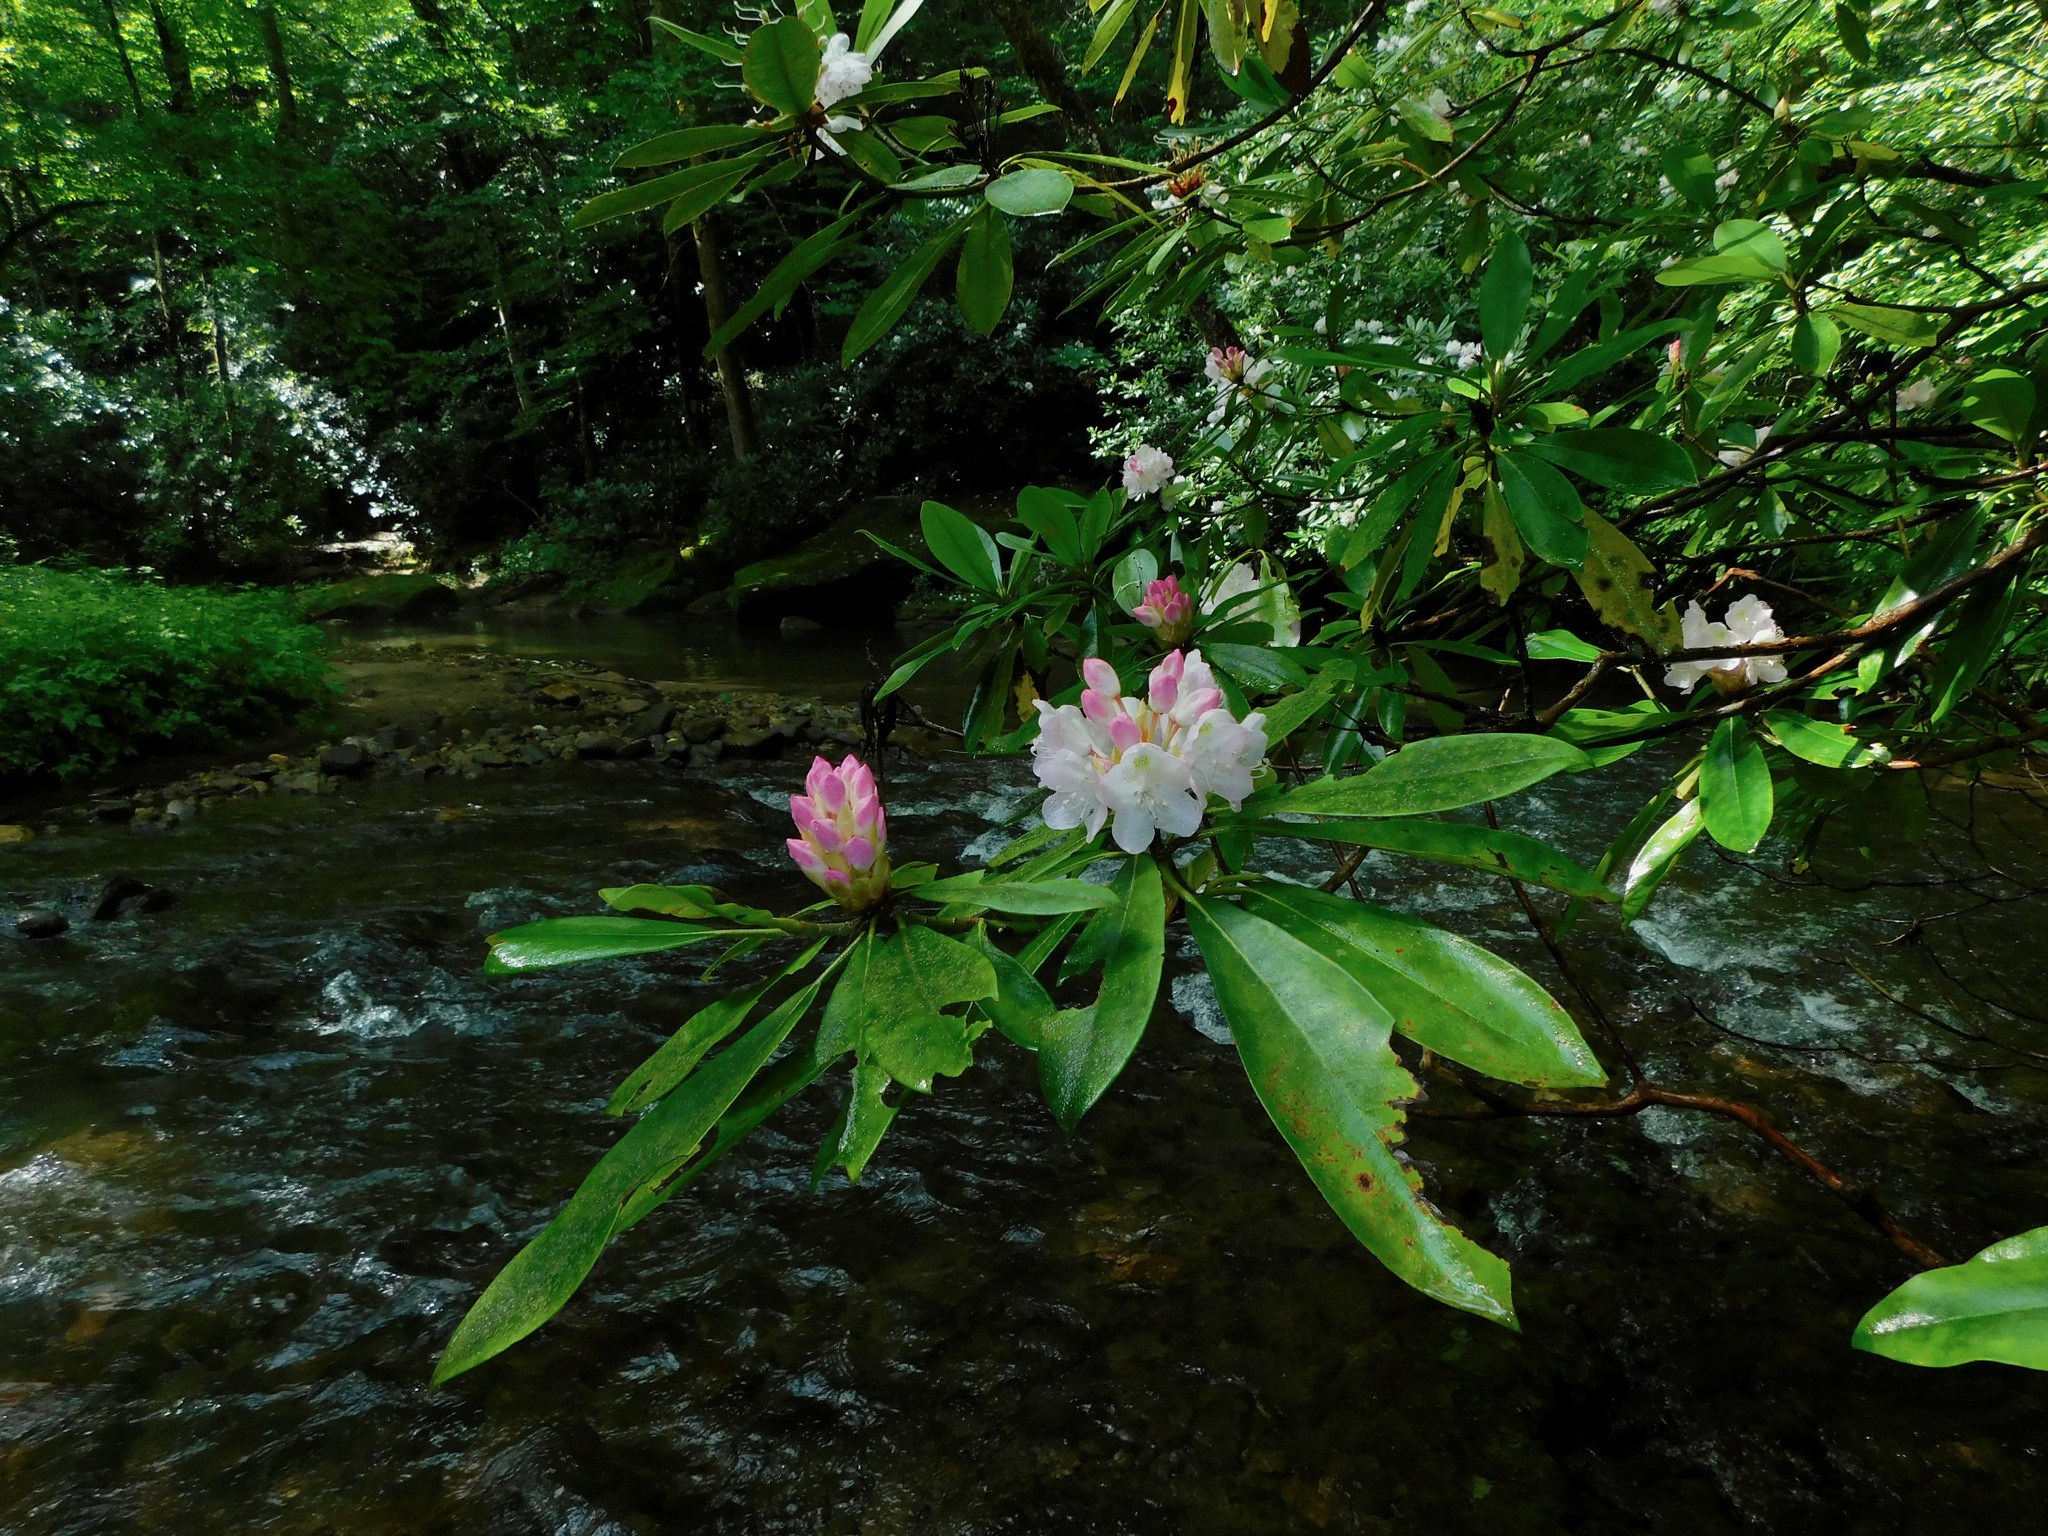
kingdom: Plantae
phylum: Tracheophyta
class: Magnoliopsida
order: Ericales
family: Ericaceae
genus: Rhododendron
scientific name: Rhododendron maximum
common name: Great rhododendron
